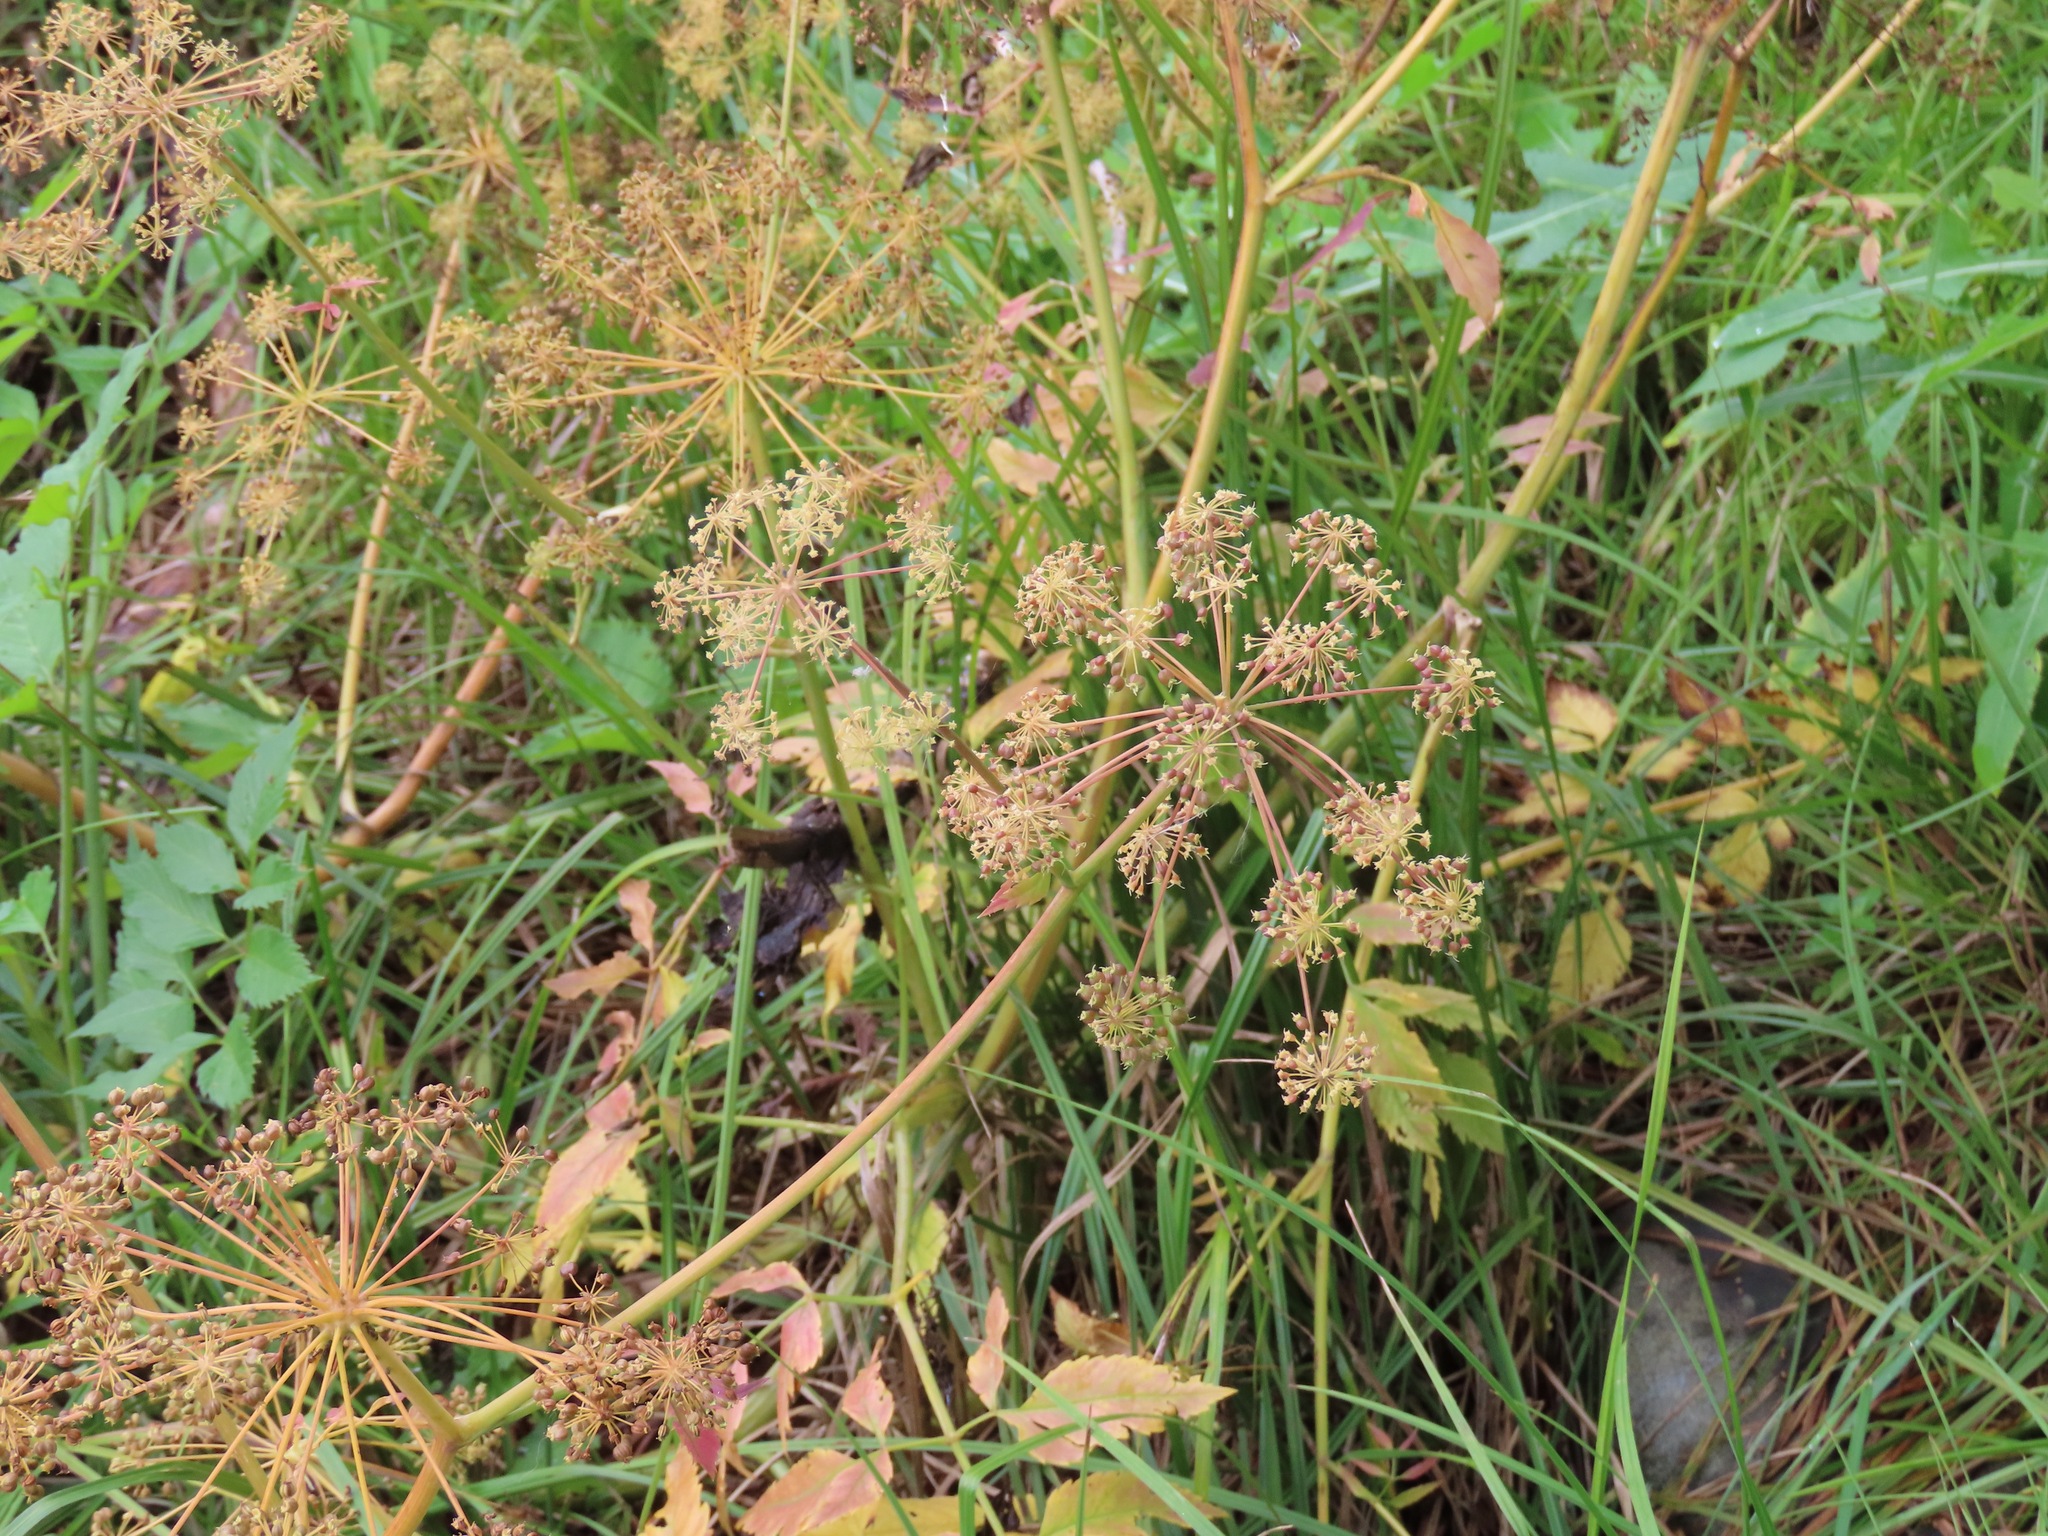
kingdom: Plantae
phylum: Tracheophyta
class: Magnoliopsida
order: Apiales
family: Apiaceae
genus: Cicuta
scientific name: Cicuta douglasii
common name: Western water-hemlock
